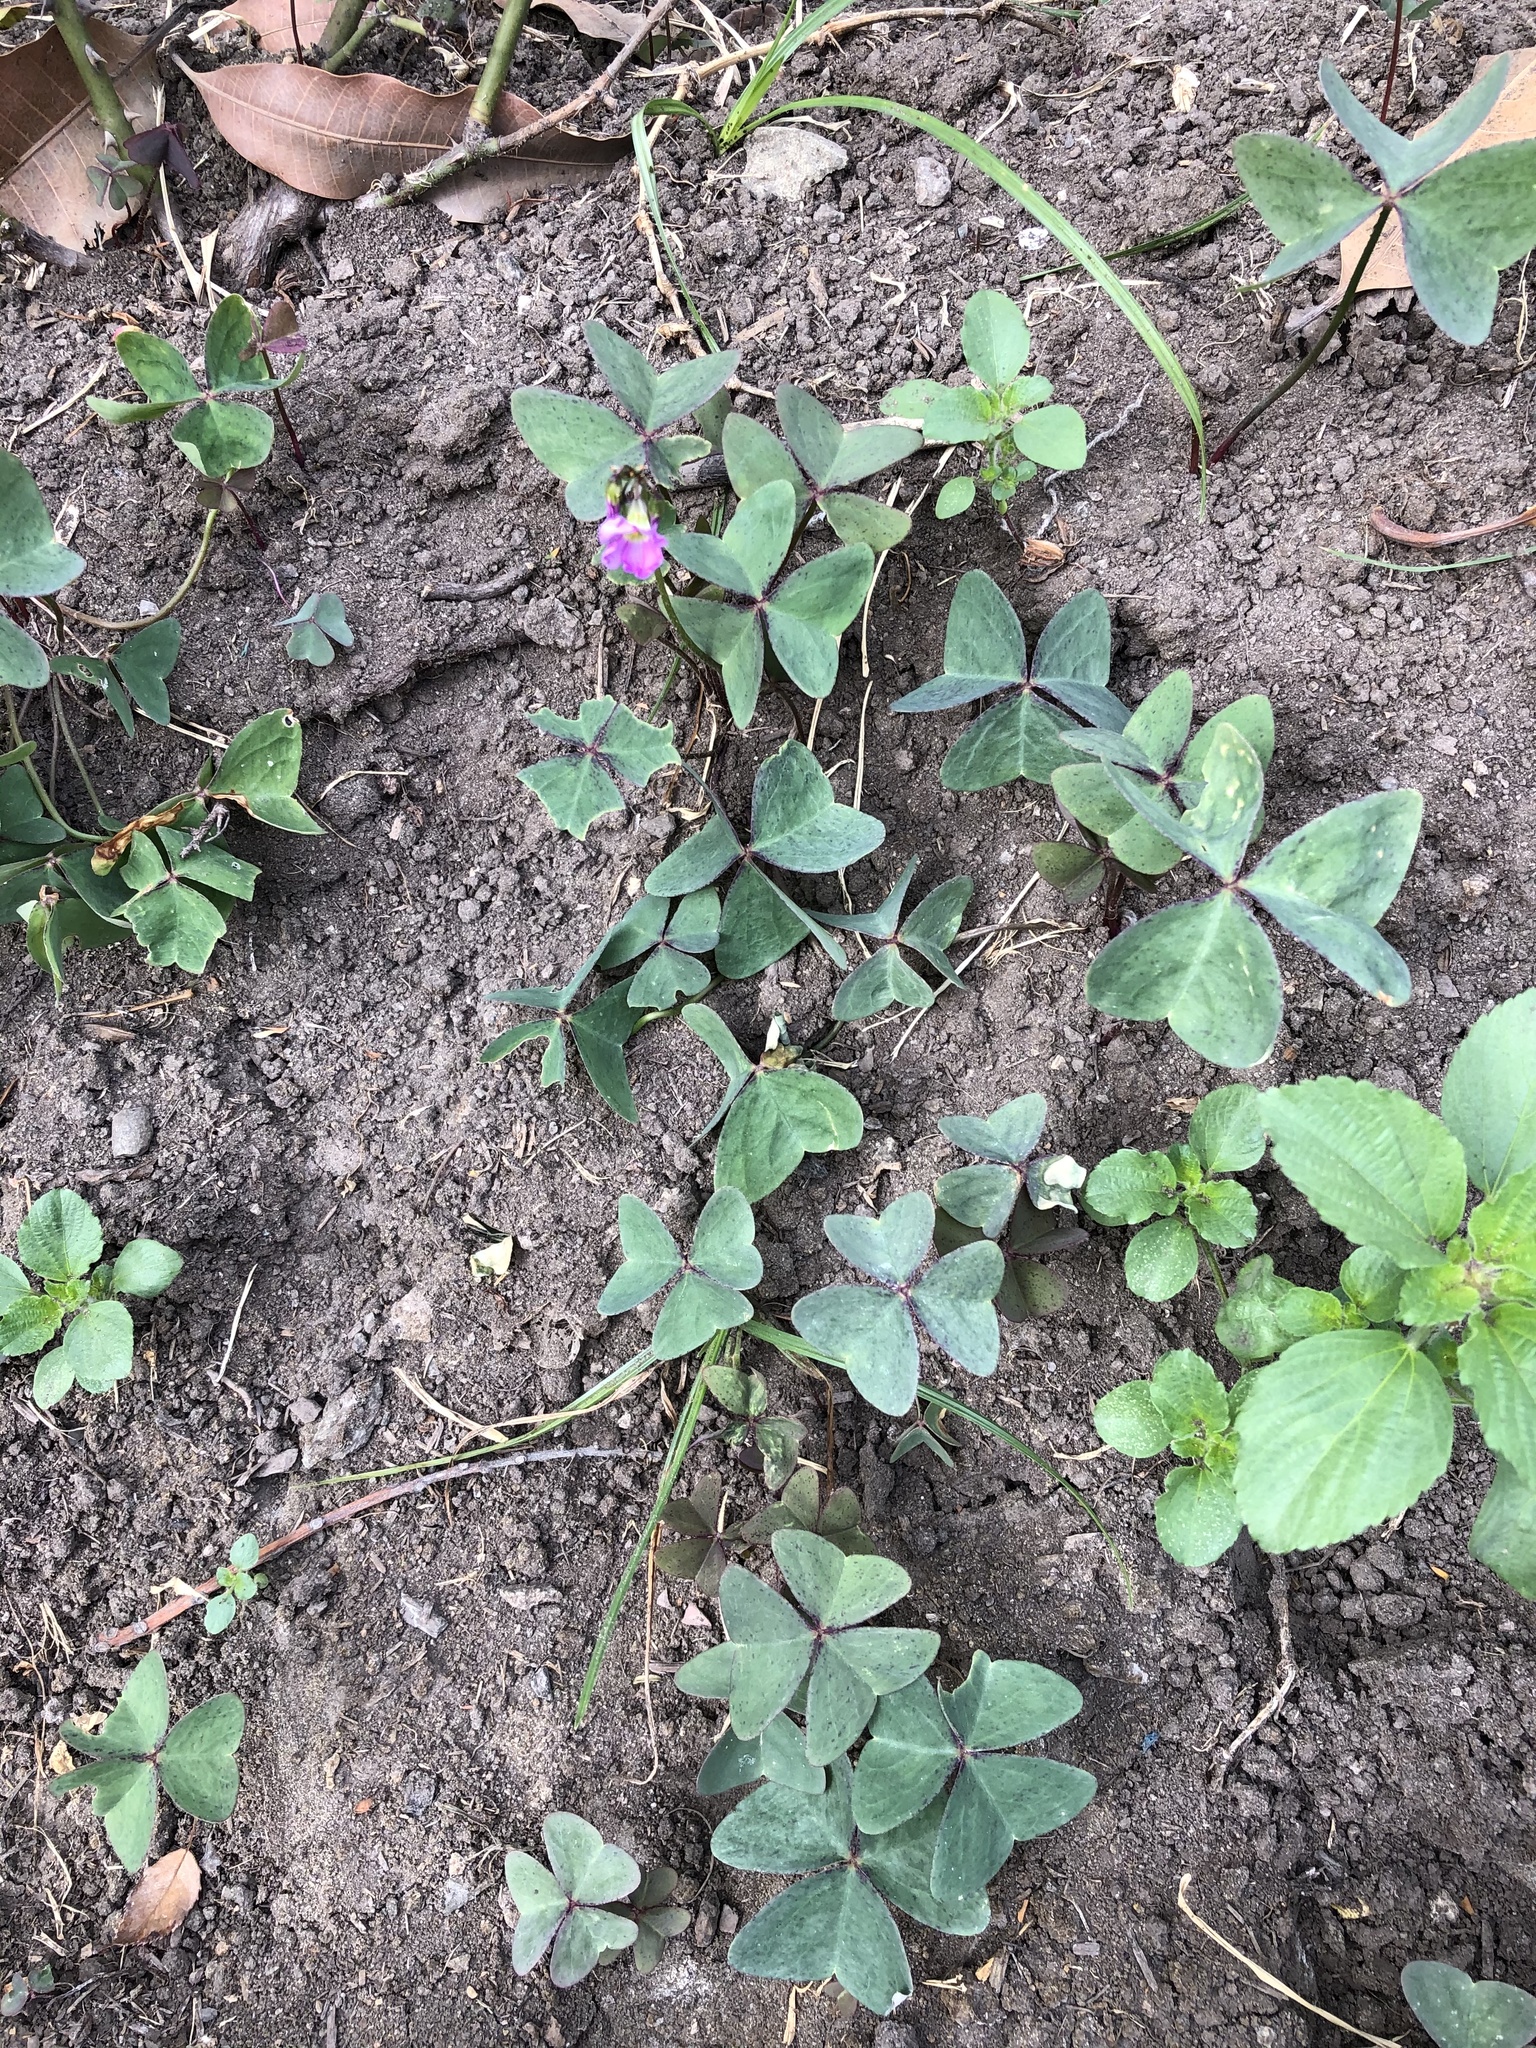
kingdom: Plantae
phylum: Tracheophyta
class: Magnoliopsida
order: Oxalidales
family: Oxalidaceae
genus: Oxalis
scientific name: Oxalis latifolia
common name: Garden pink-sorrel
